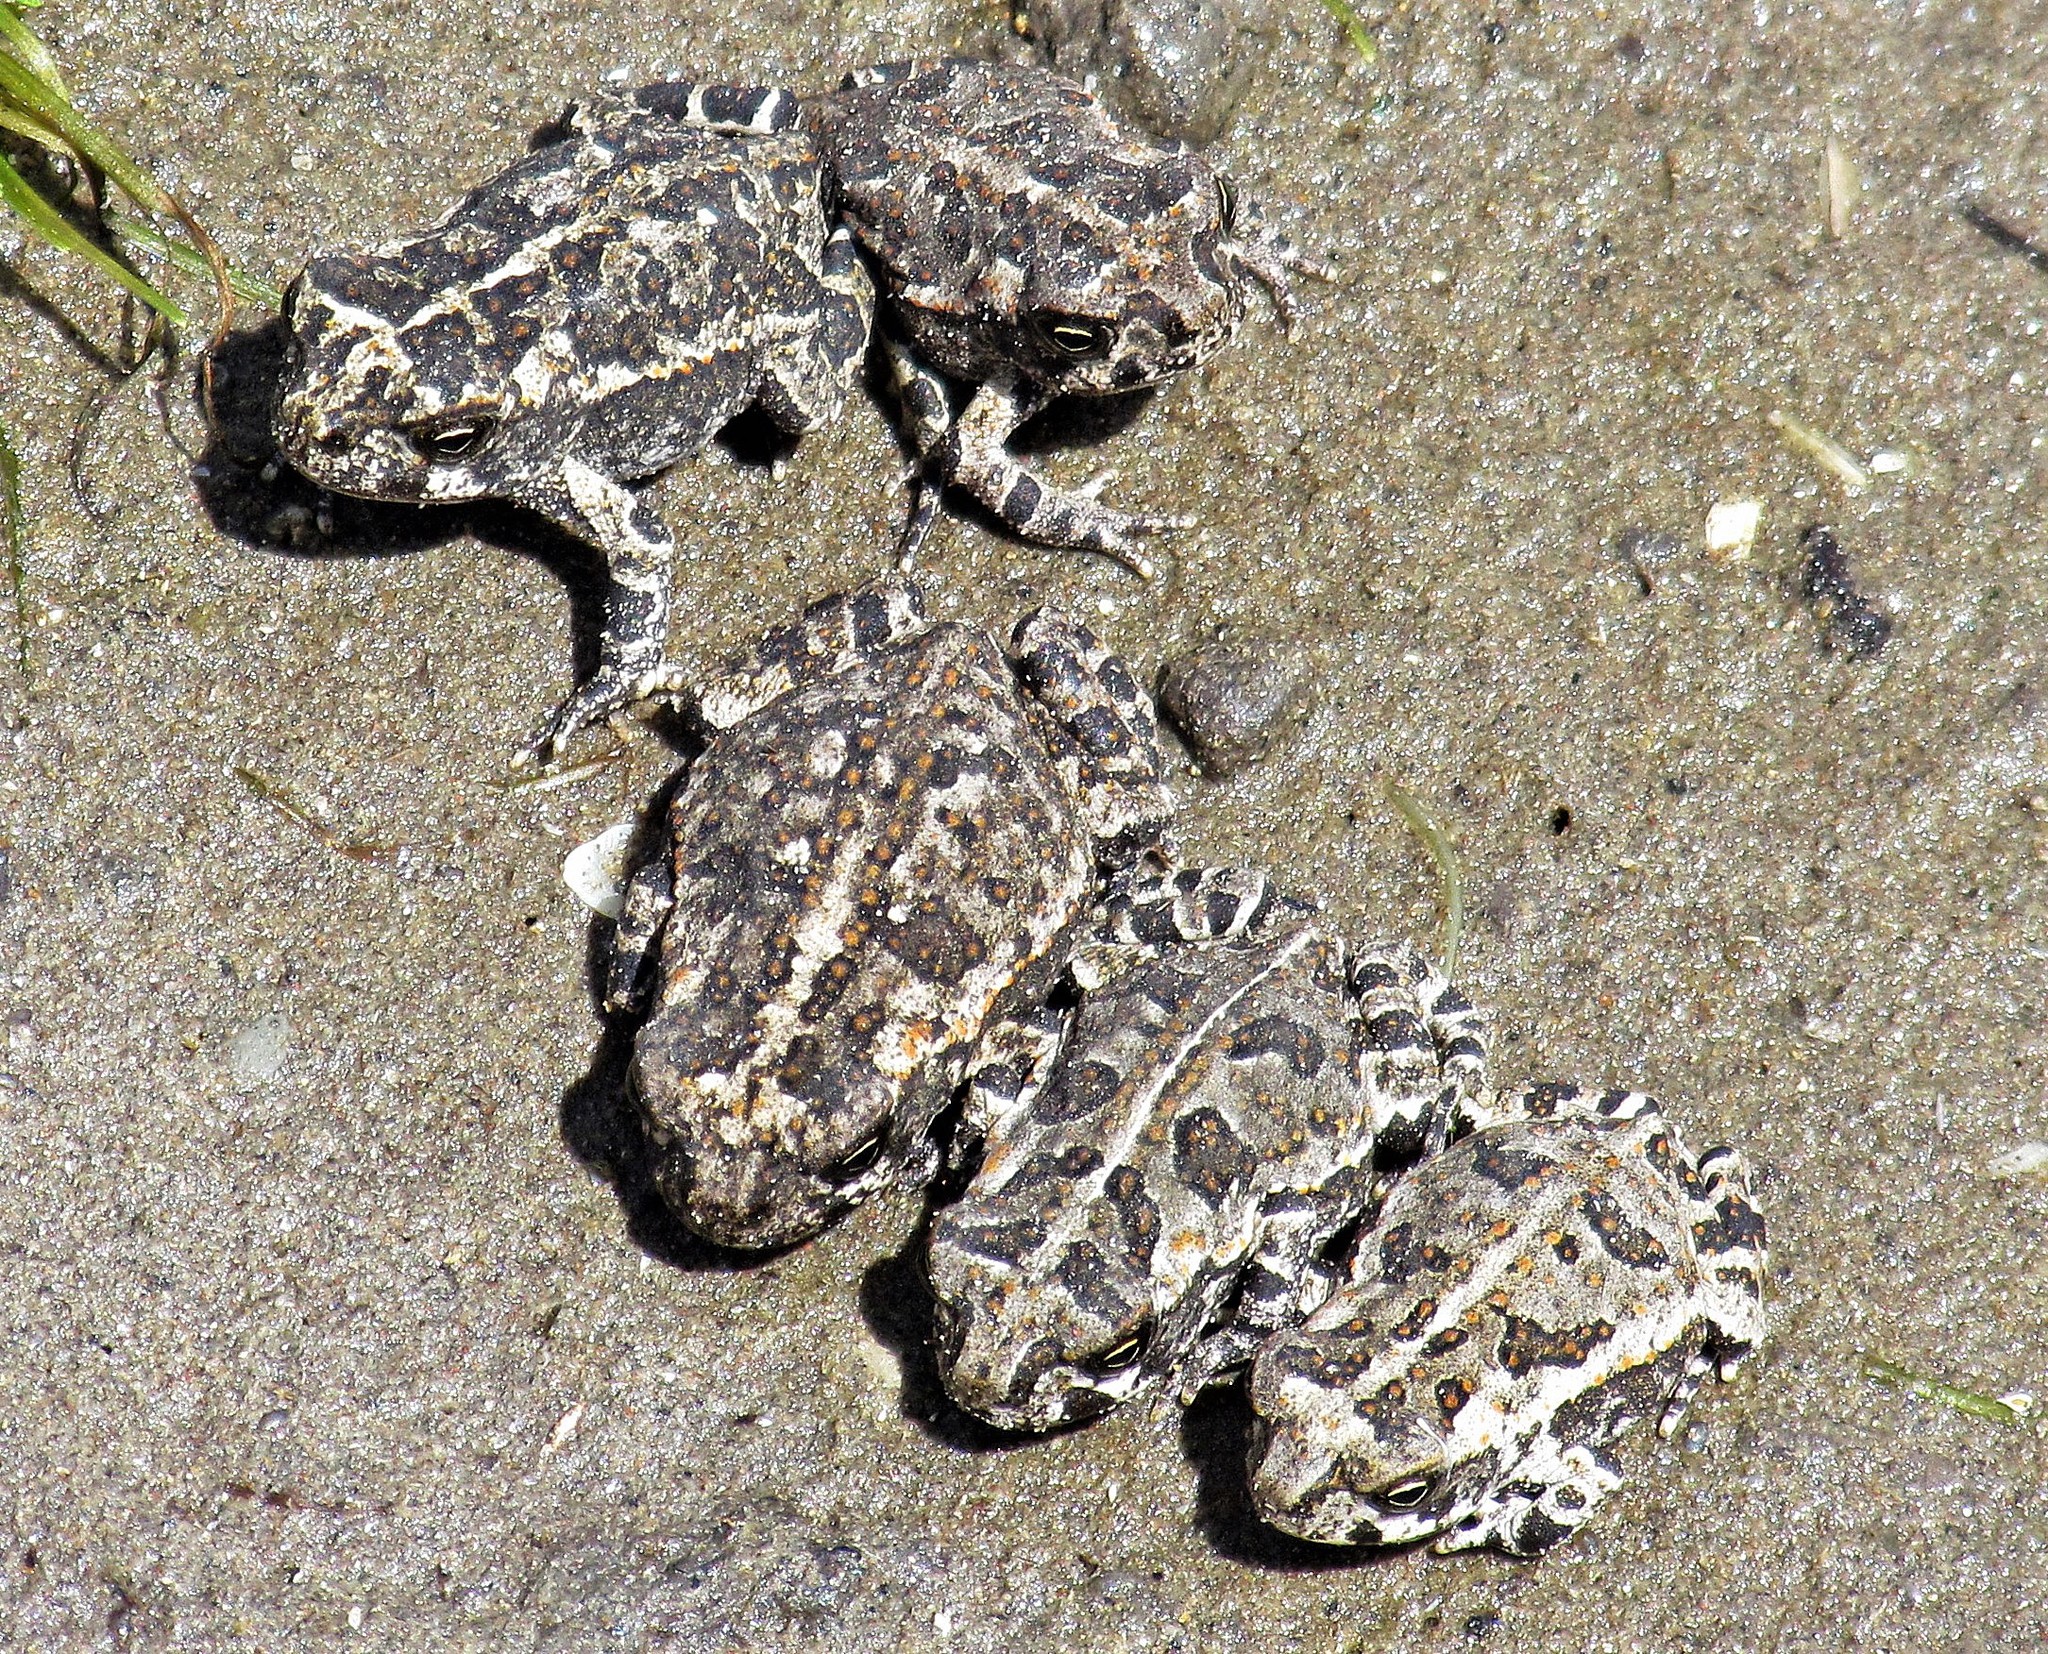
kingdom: Animalia
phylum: Chordata
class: Amphibia
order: Anura
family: Bufonidae
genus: Rhinella
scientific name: Rhinella arenarum
